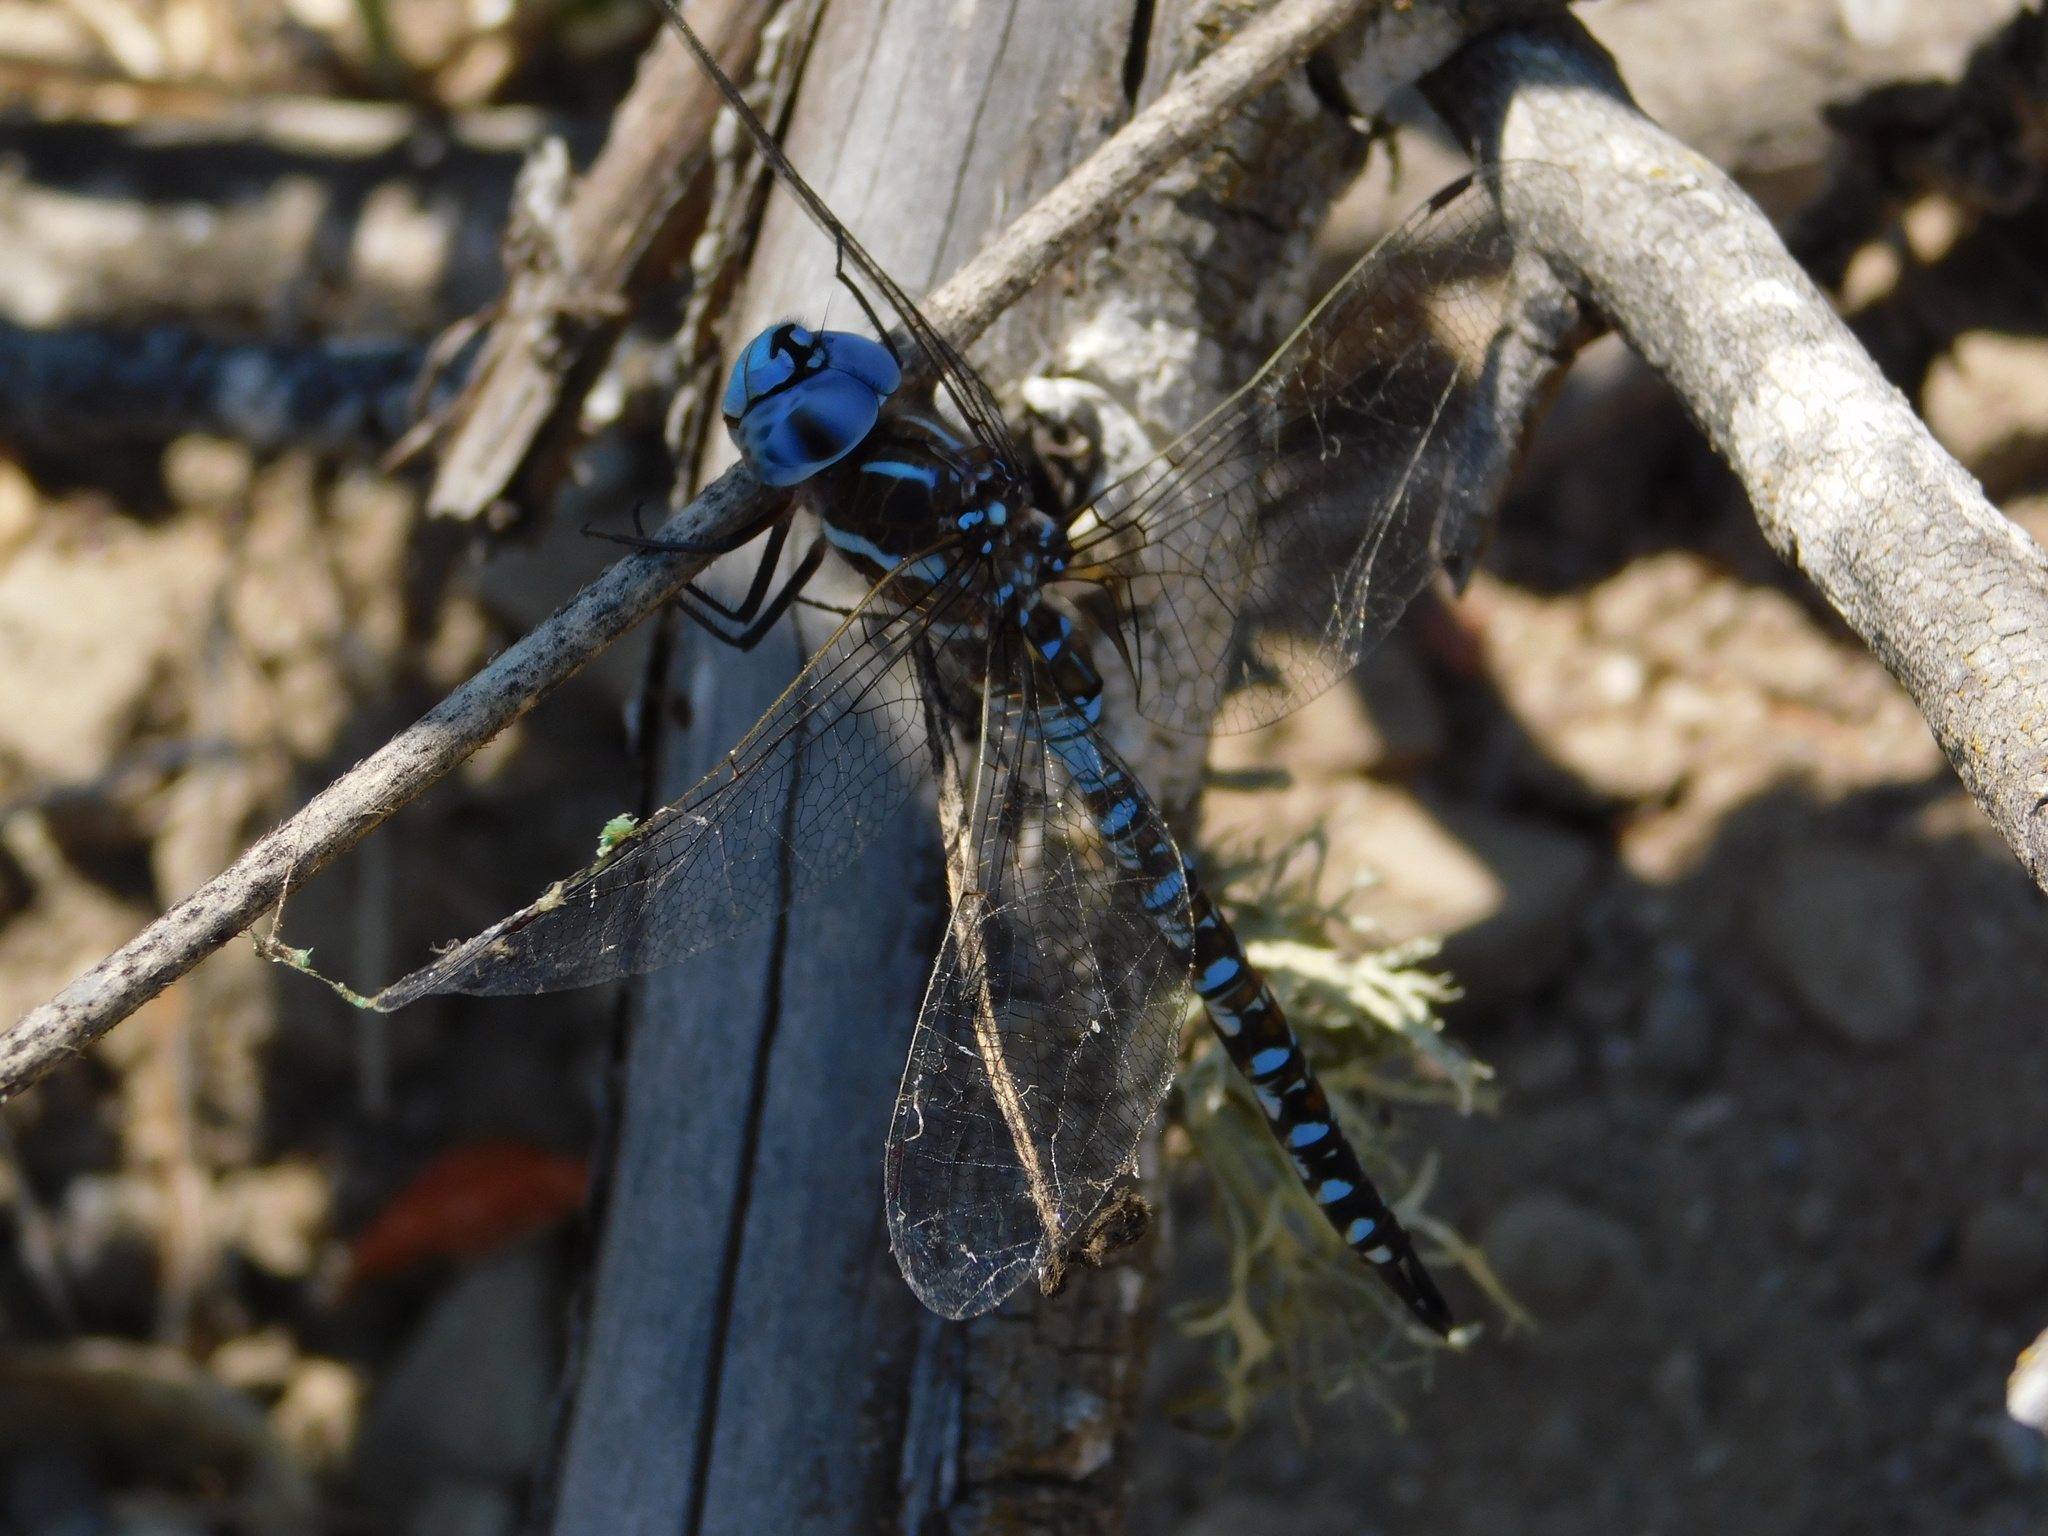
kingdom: Animalia
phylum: Arthropoda
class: Insecta
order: Odonata
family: Aeshnidae
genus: Rhionaeschna
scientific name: Rhionaeschna multicolor
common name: Blue-eyed darner
